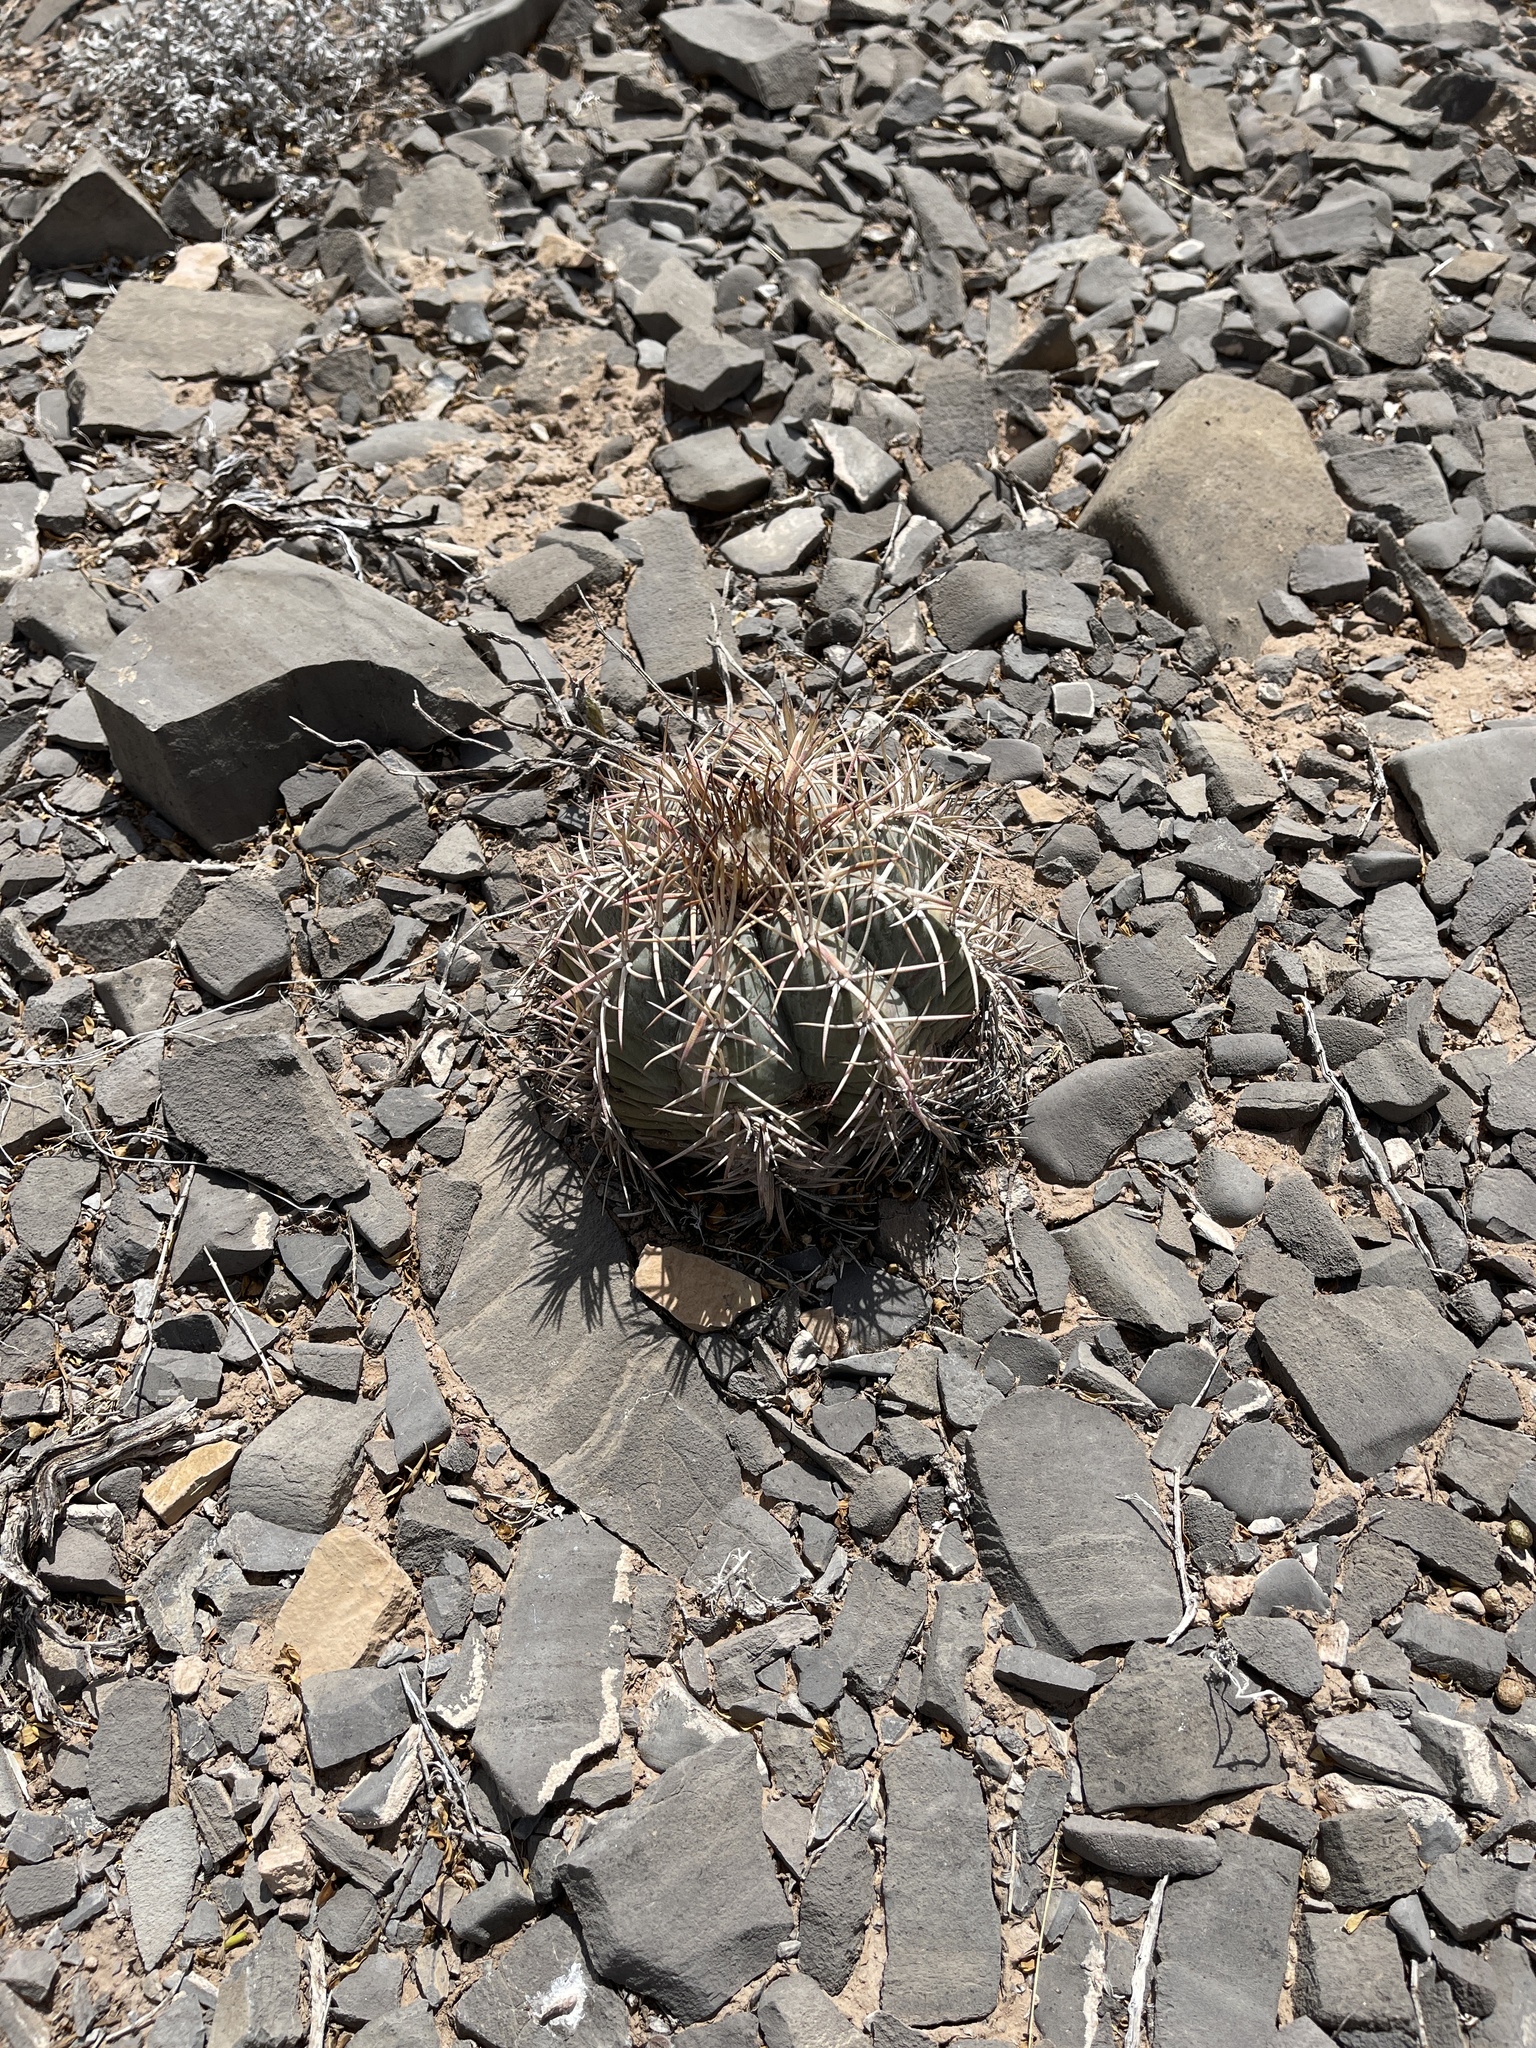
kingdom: Plantae
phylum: Tracheophyta
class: Magnoliopsida
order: Caryophyllales
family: Cactaceae
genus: Echinocactus
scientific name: Echinocactus horizonthalonius
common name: Devilshead
